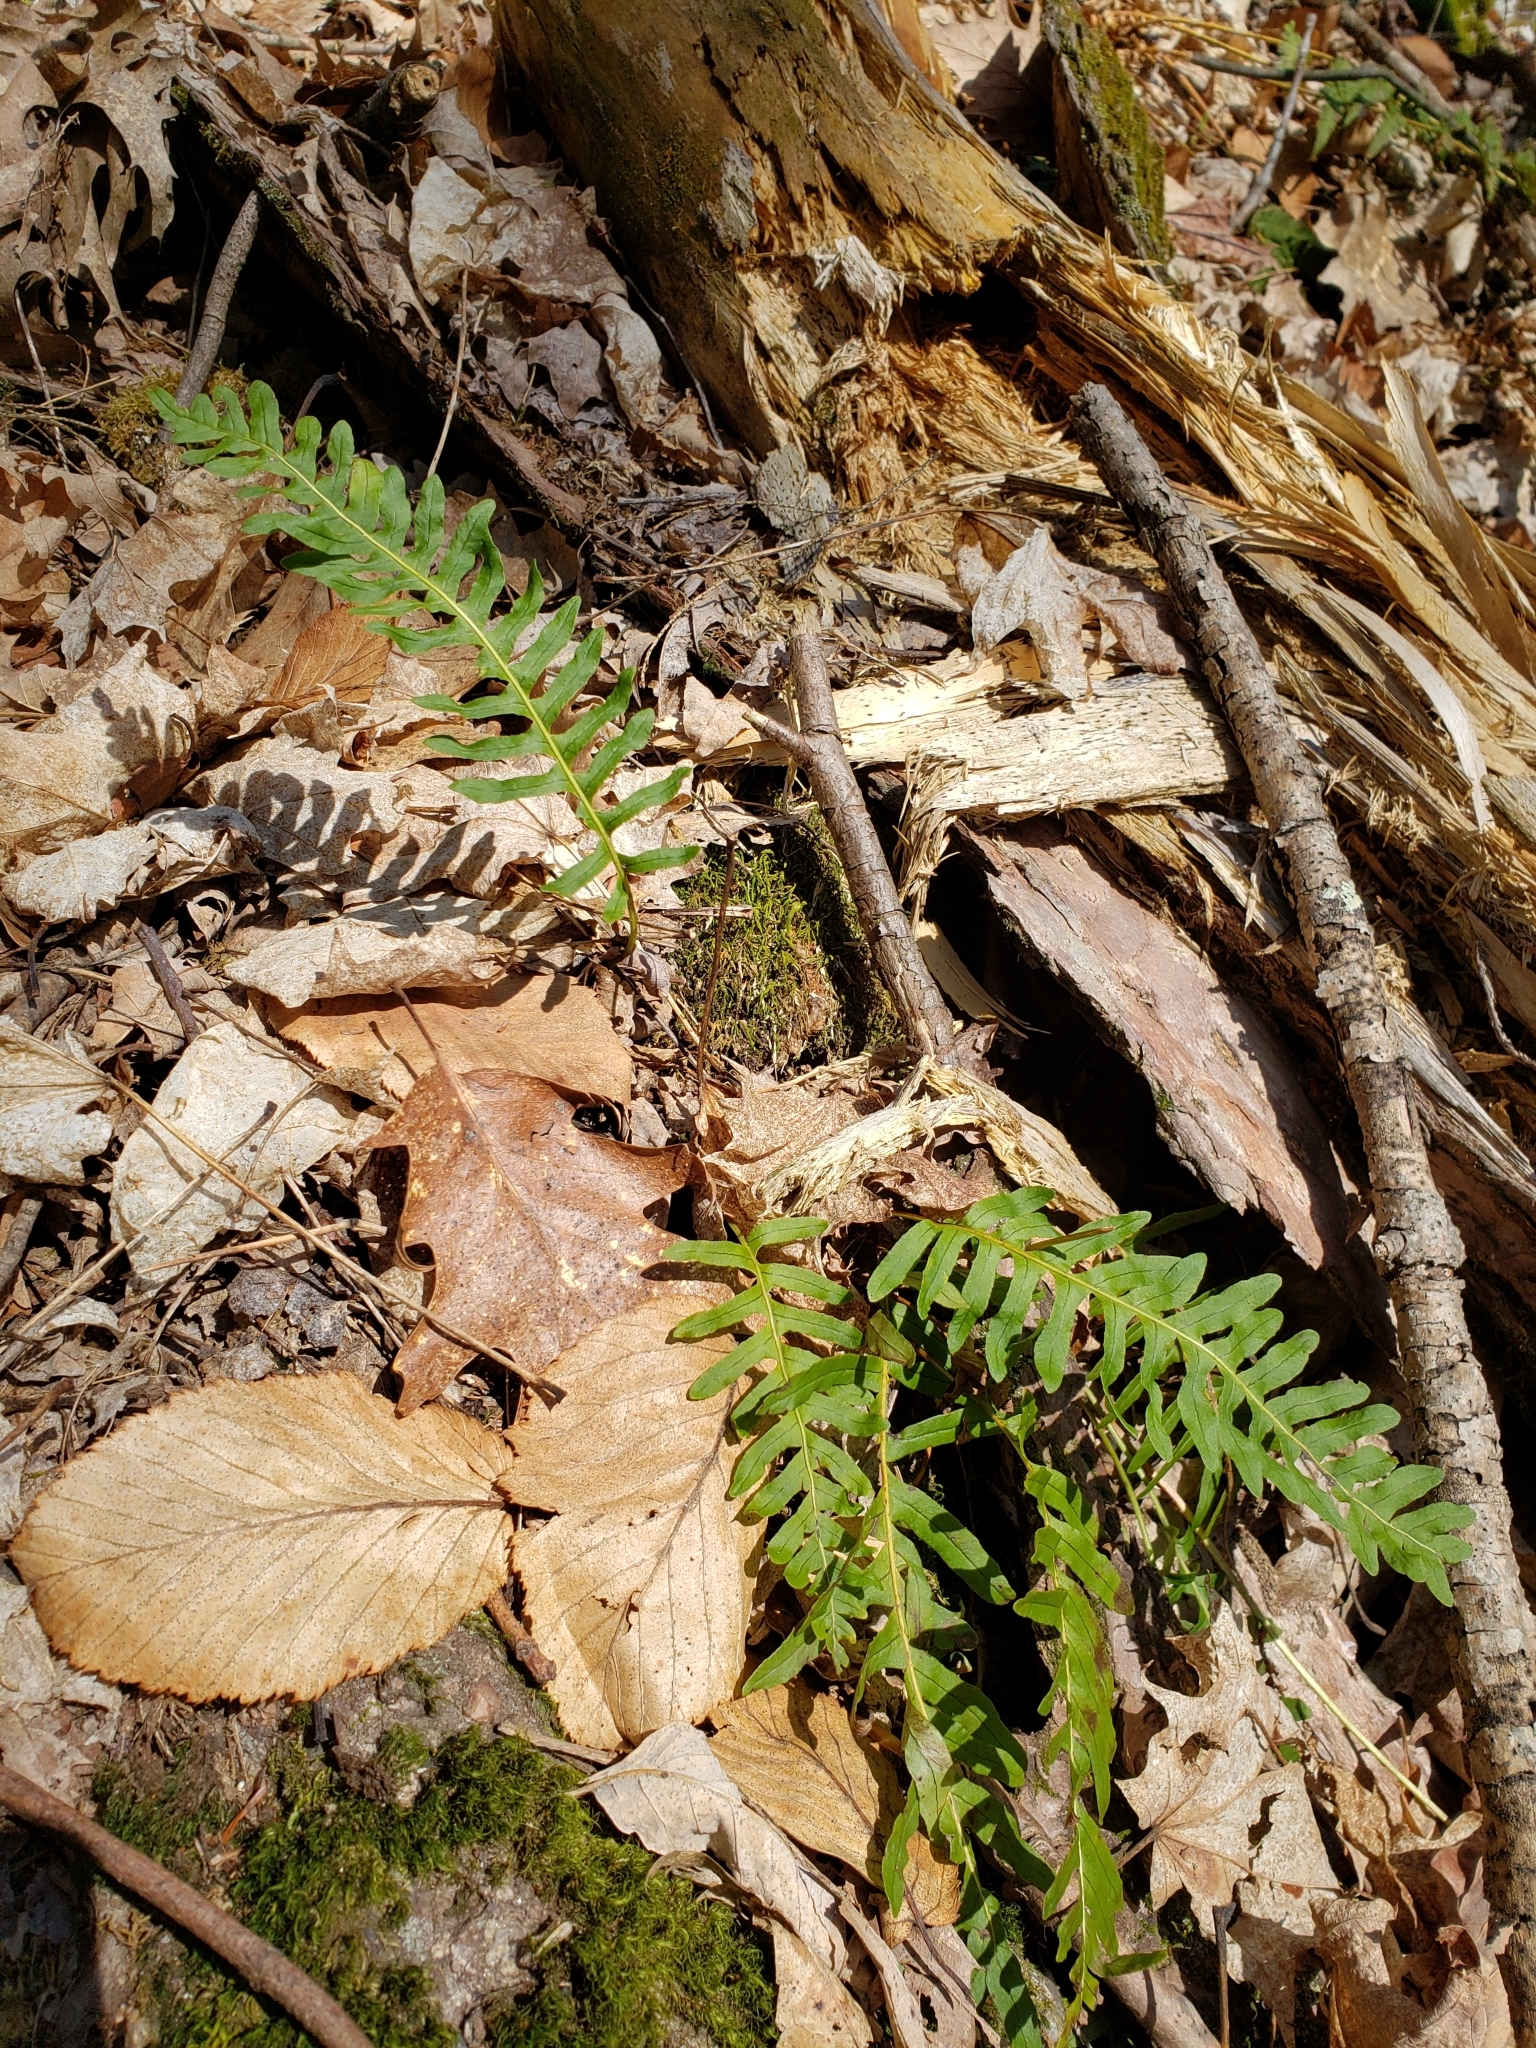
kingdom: Plantae
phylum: Tracheophyta
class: Polypodiopsida
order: Polypodiales
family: Polypodiaceae
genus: Polypodium
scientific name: Polypodium virginianum
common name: American wall fern
